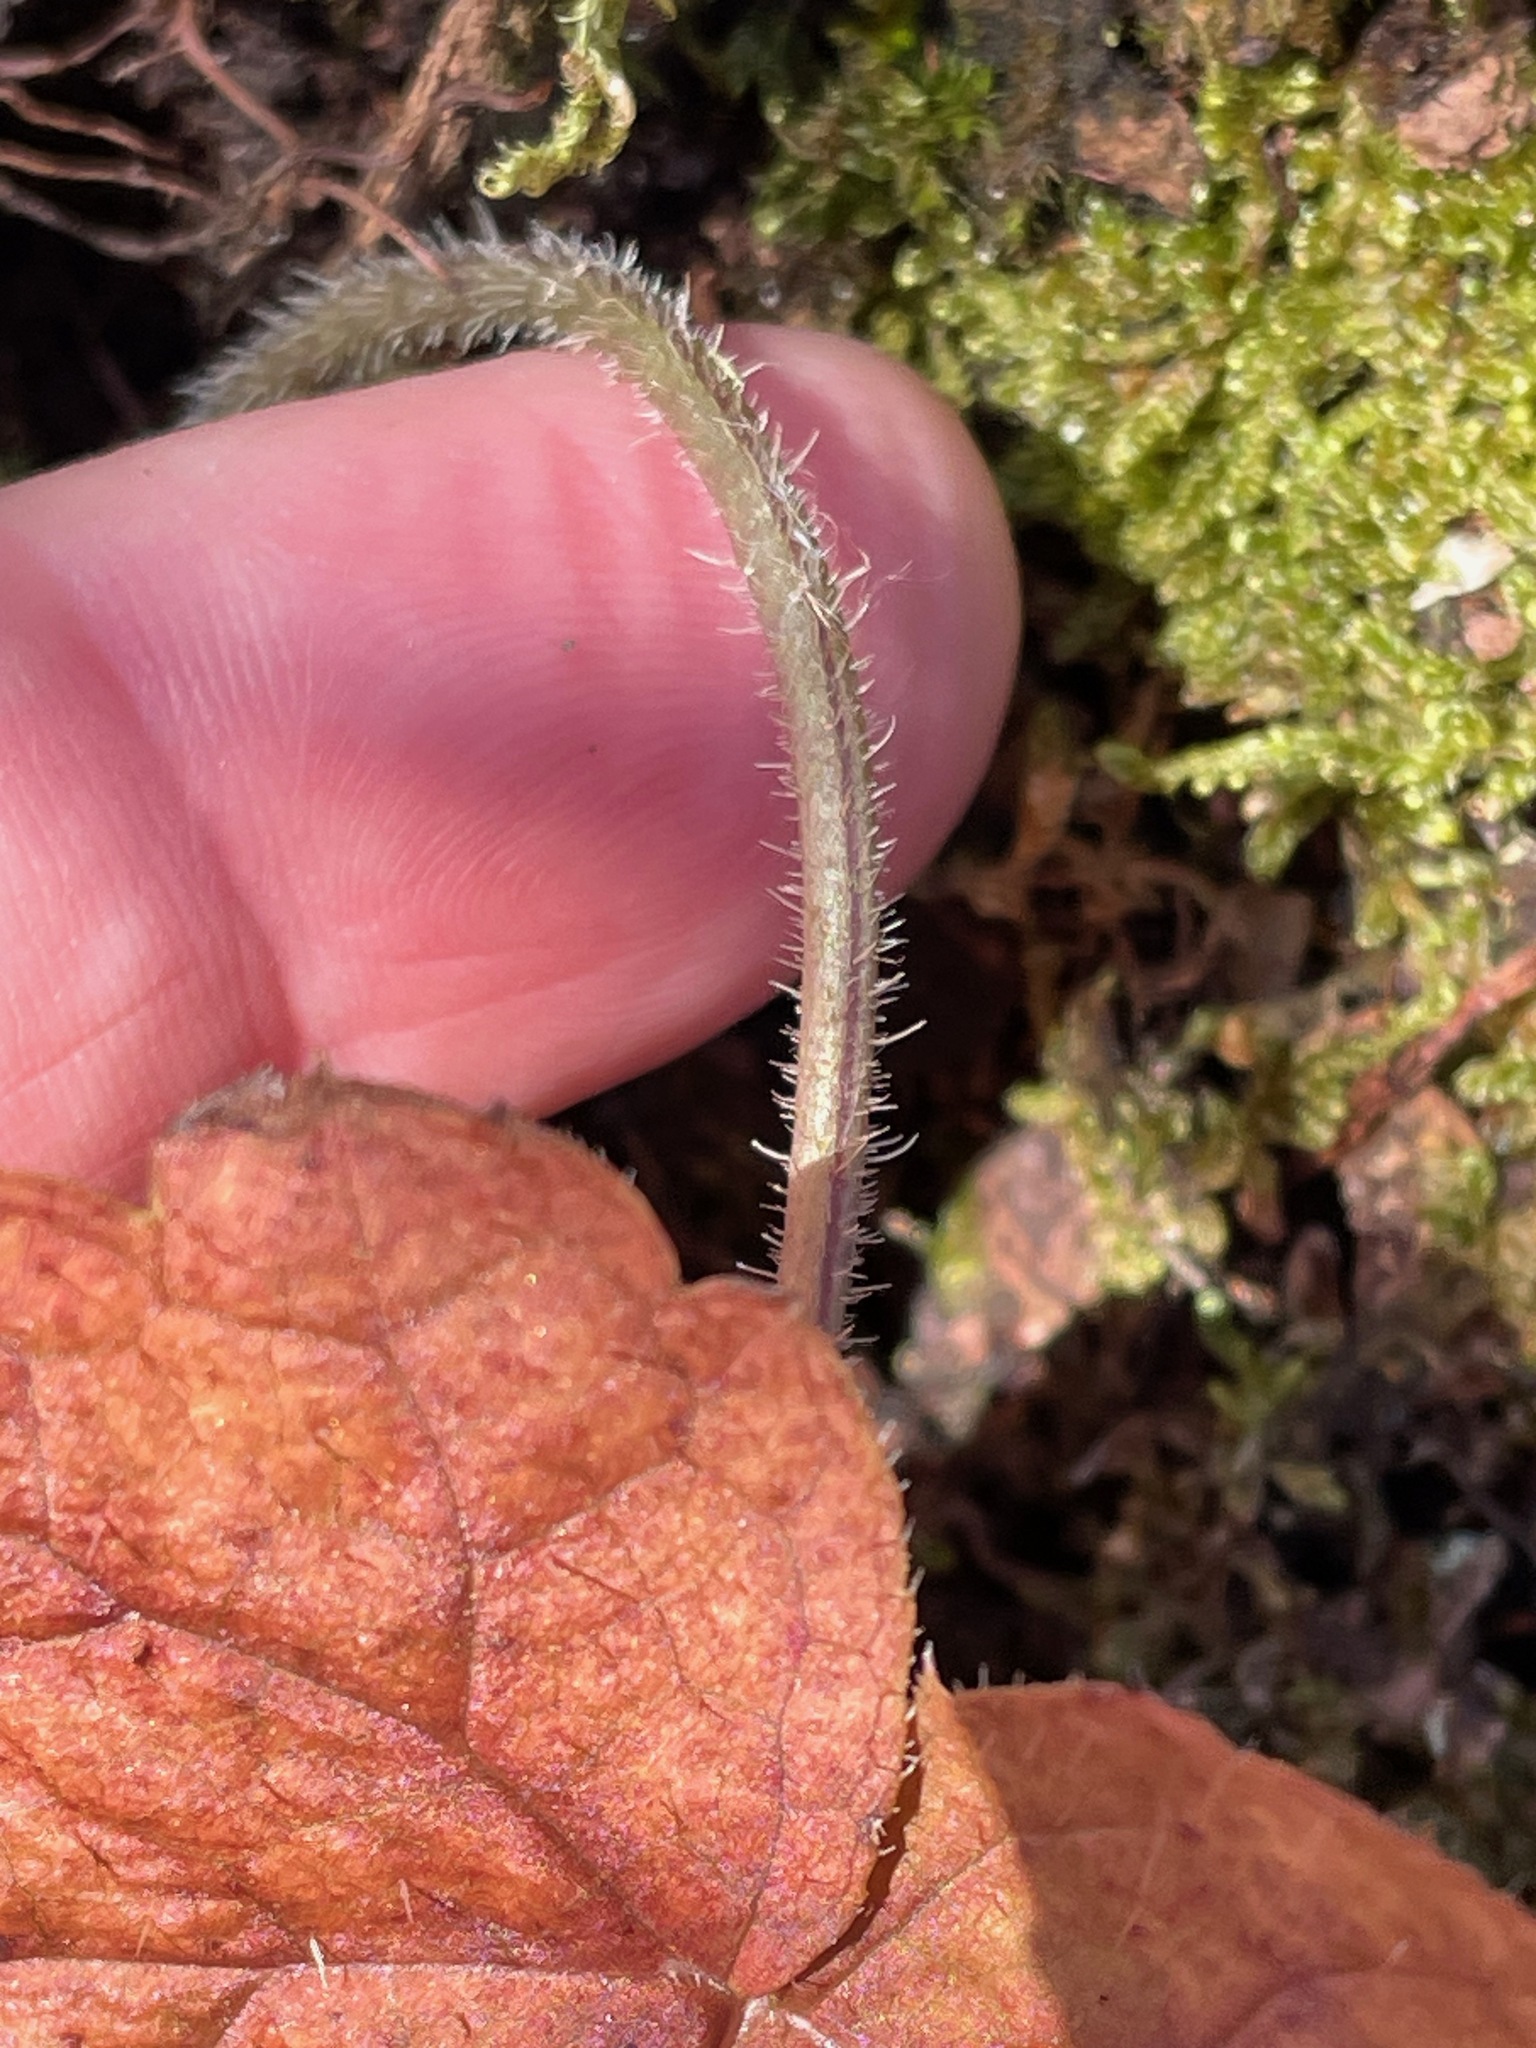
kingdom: Plantae
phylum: Tracheophyta
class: Magnoliopsida
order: Saxifragales
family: Saxifragaceae
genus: Tiarella
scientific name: Tiarella stolonifera
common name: Stoloniferous foamflower
